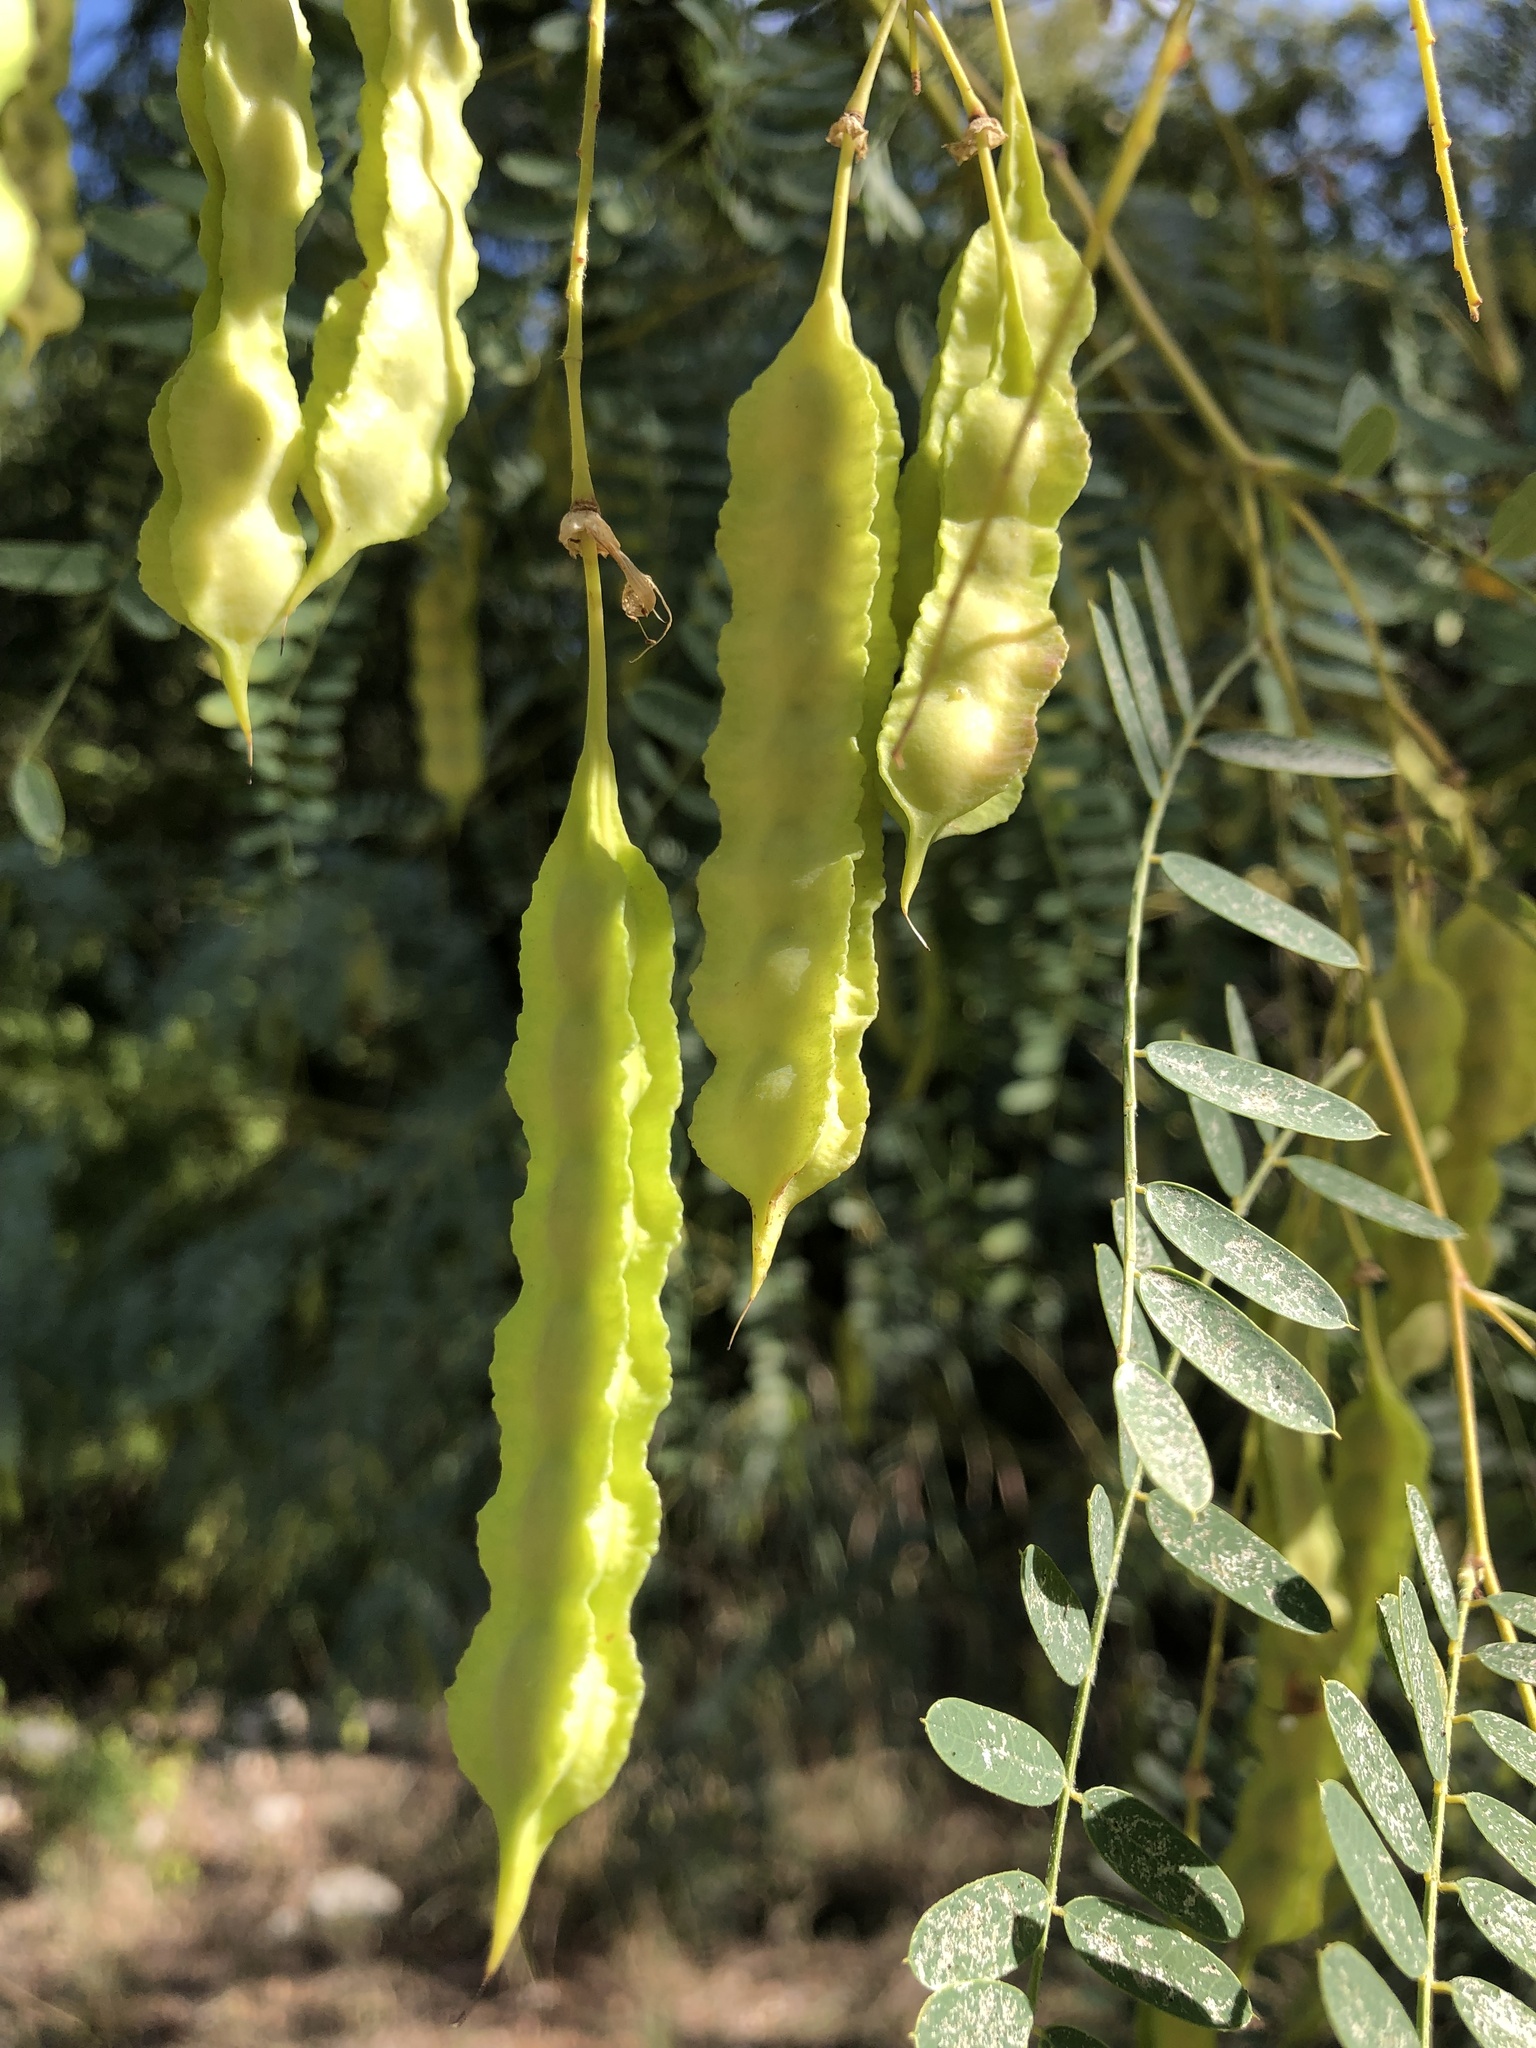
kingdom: Plantae
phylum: Tracheophyta
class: Magnoliopsida
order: Fabales
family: Fabaceae
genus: Sesbania
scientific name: Sesbania drummondii
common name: Poison-bean
